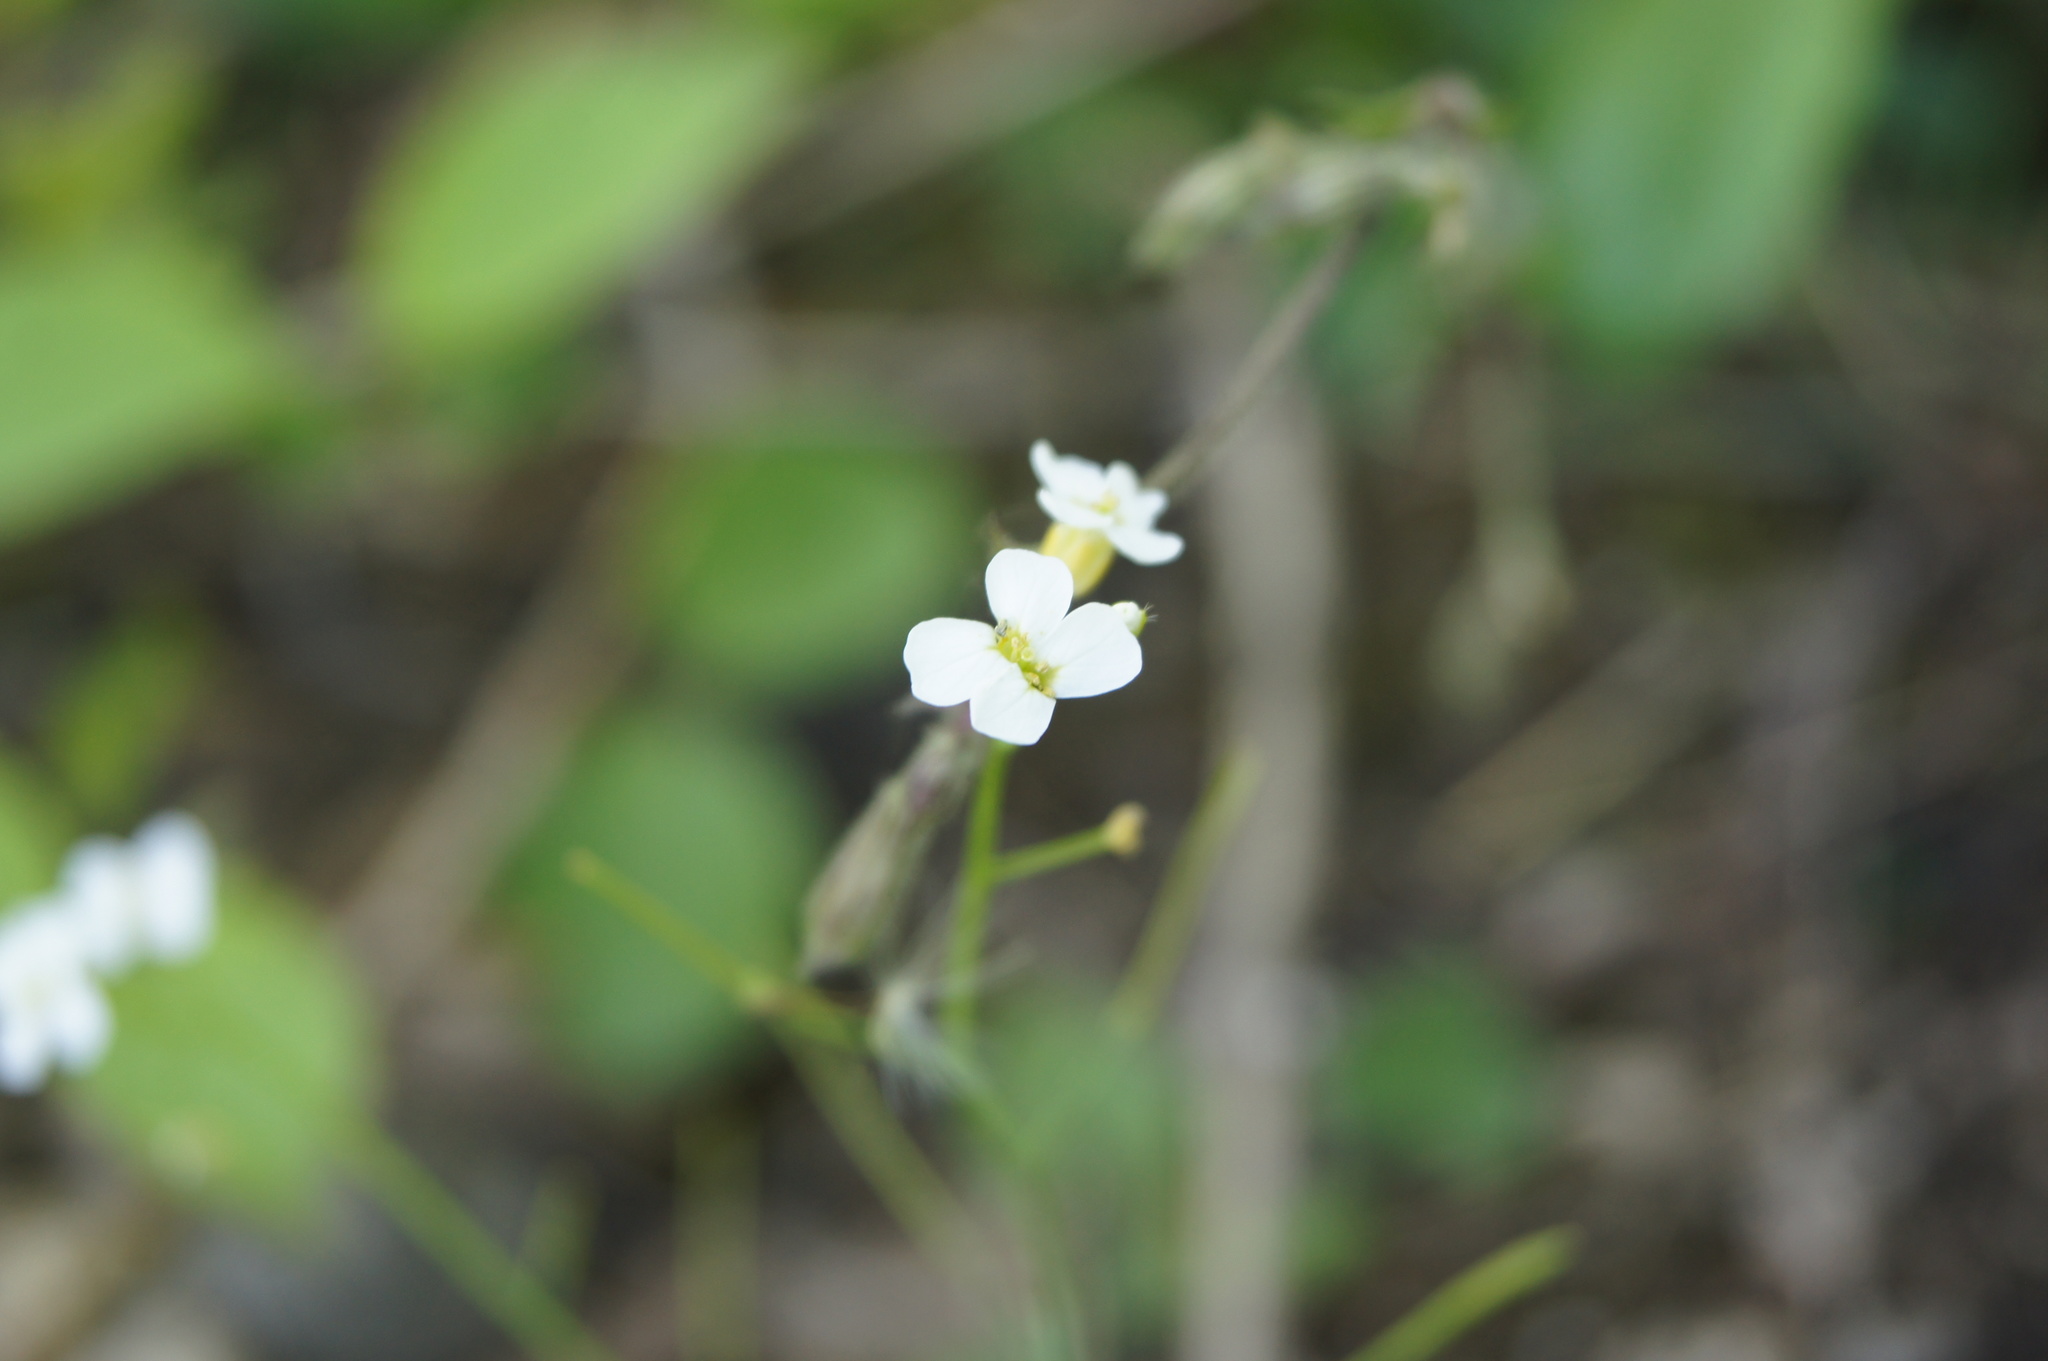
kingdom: Plantae
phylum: Tracheophyta
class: Magnoliopsida
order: Brassicales
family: Brassicaceae
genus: Arabidopsis
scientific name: Arabidopsis arenosa
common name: Sand rock-cress
